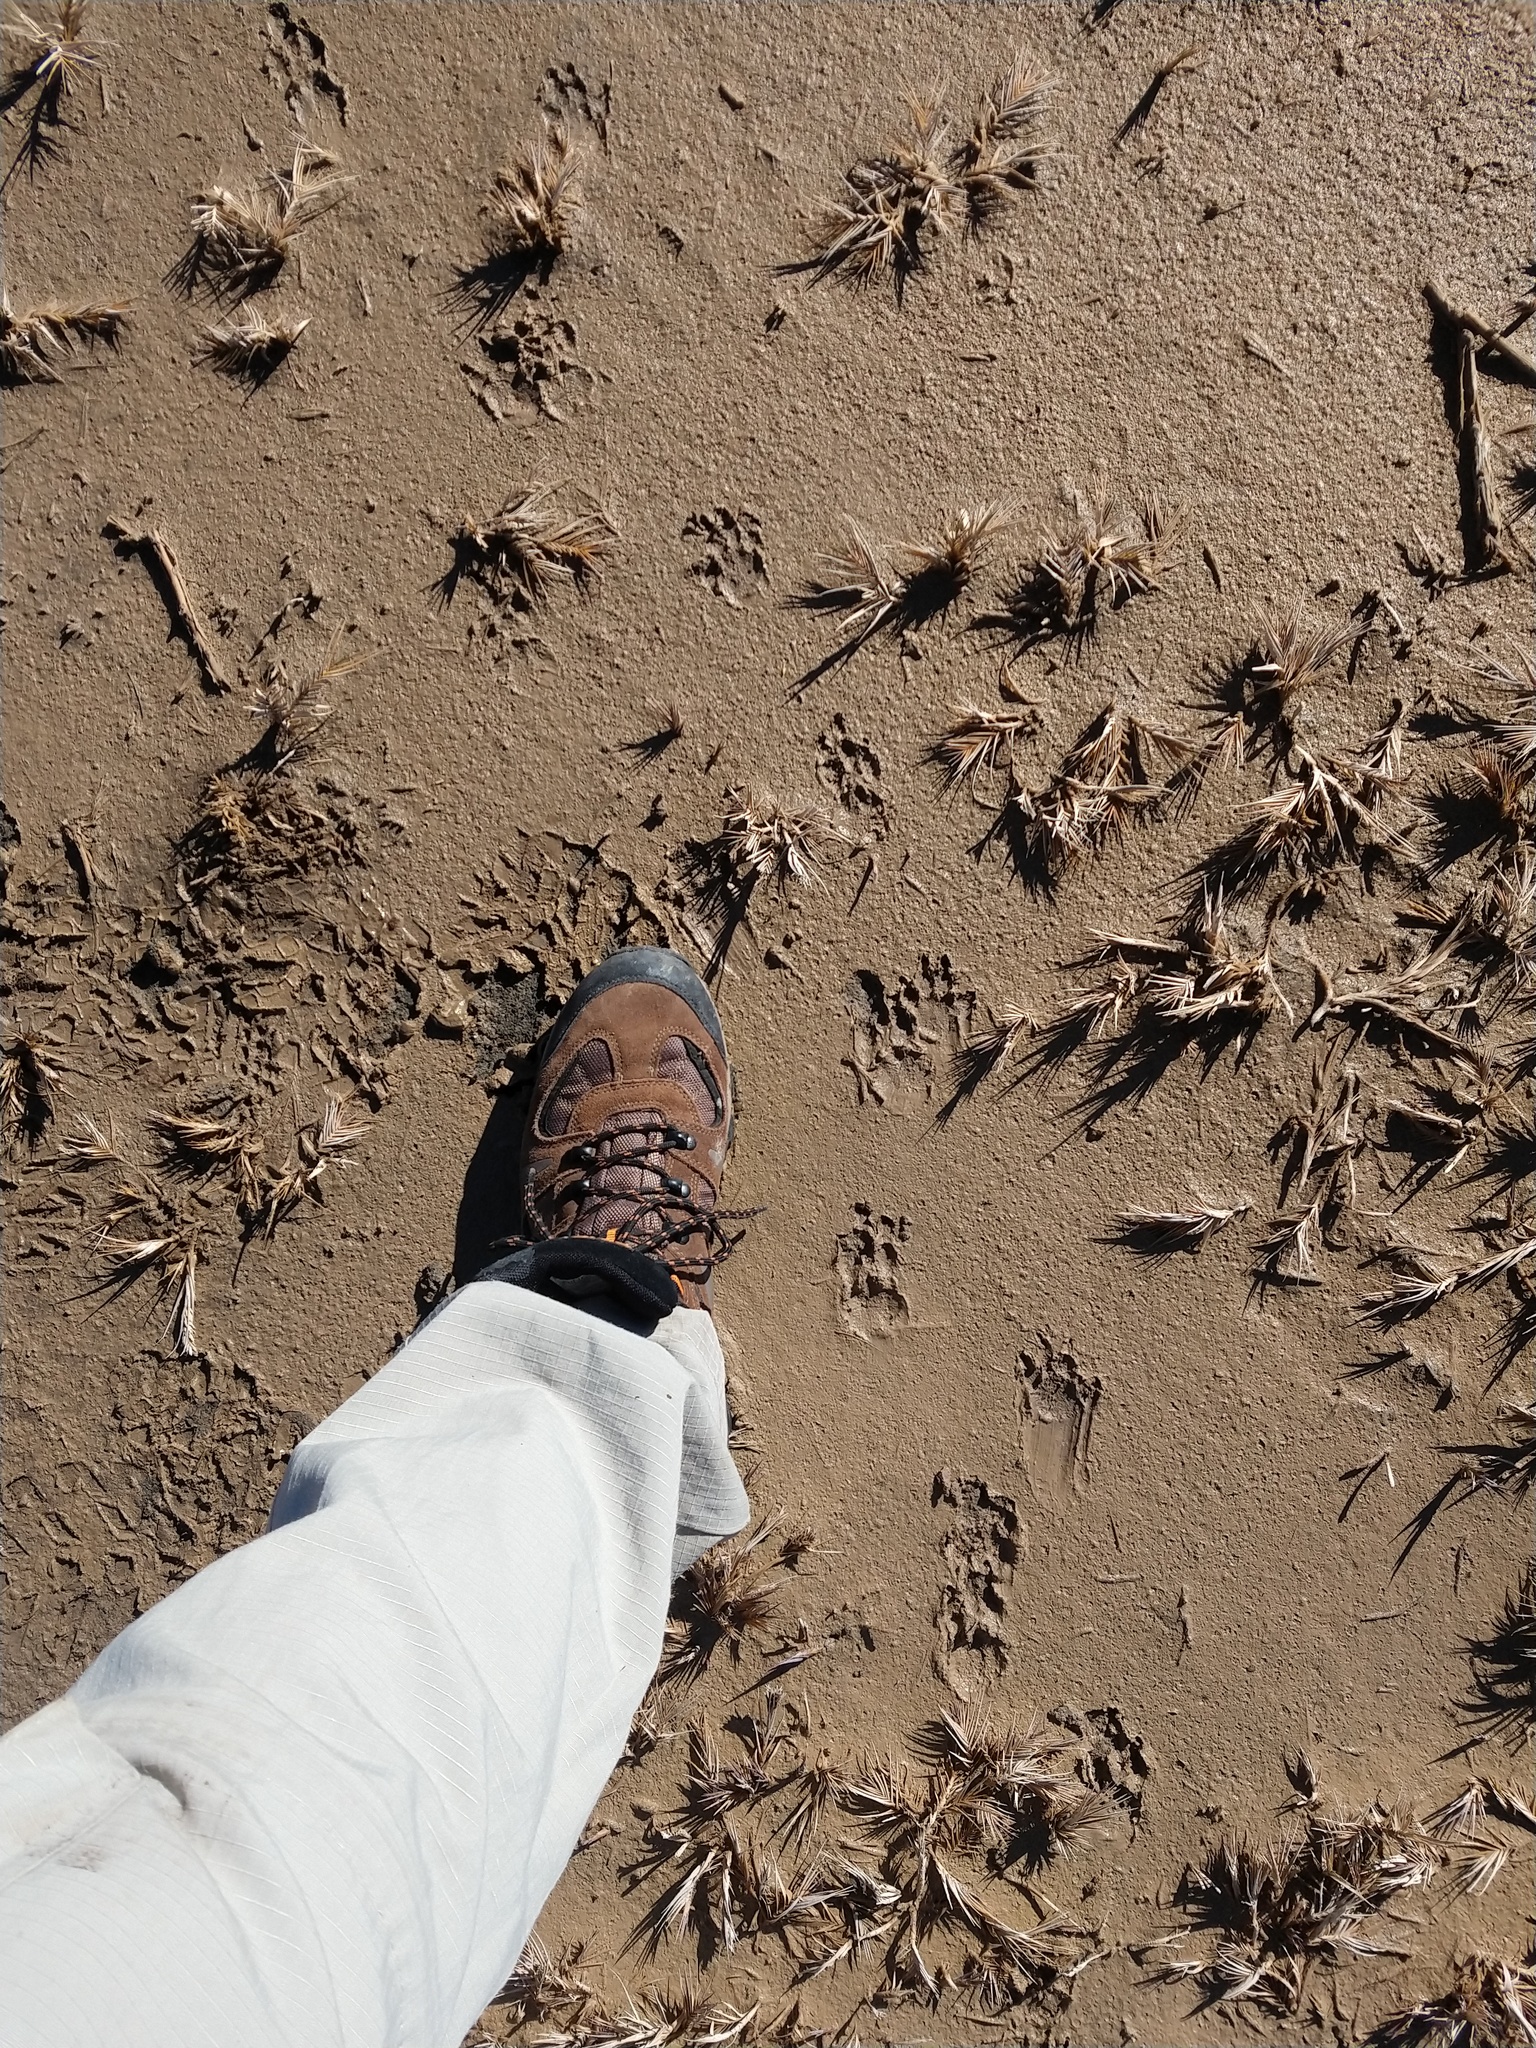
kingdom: Animalia
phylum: Chordata
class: Mammalia
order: Rodentia
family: Caviidae
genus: Dolichotis
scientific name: Dolichotis patagonum
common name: Patagonian mara
